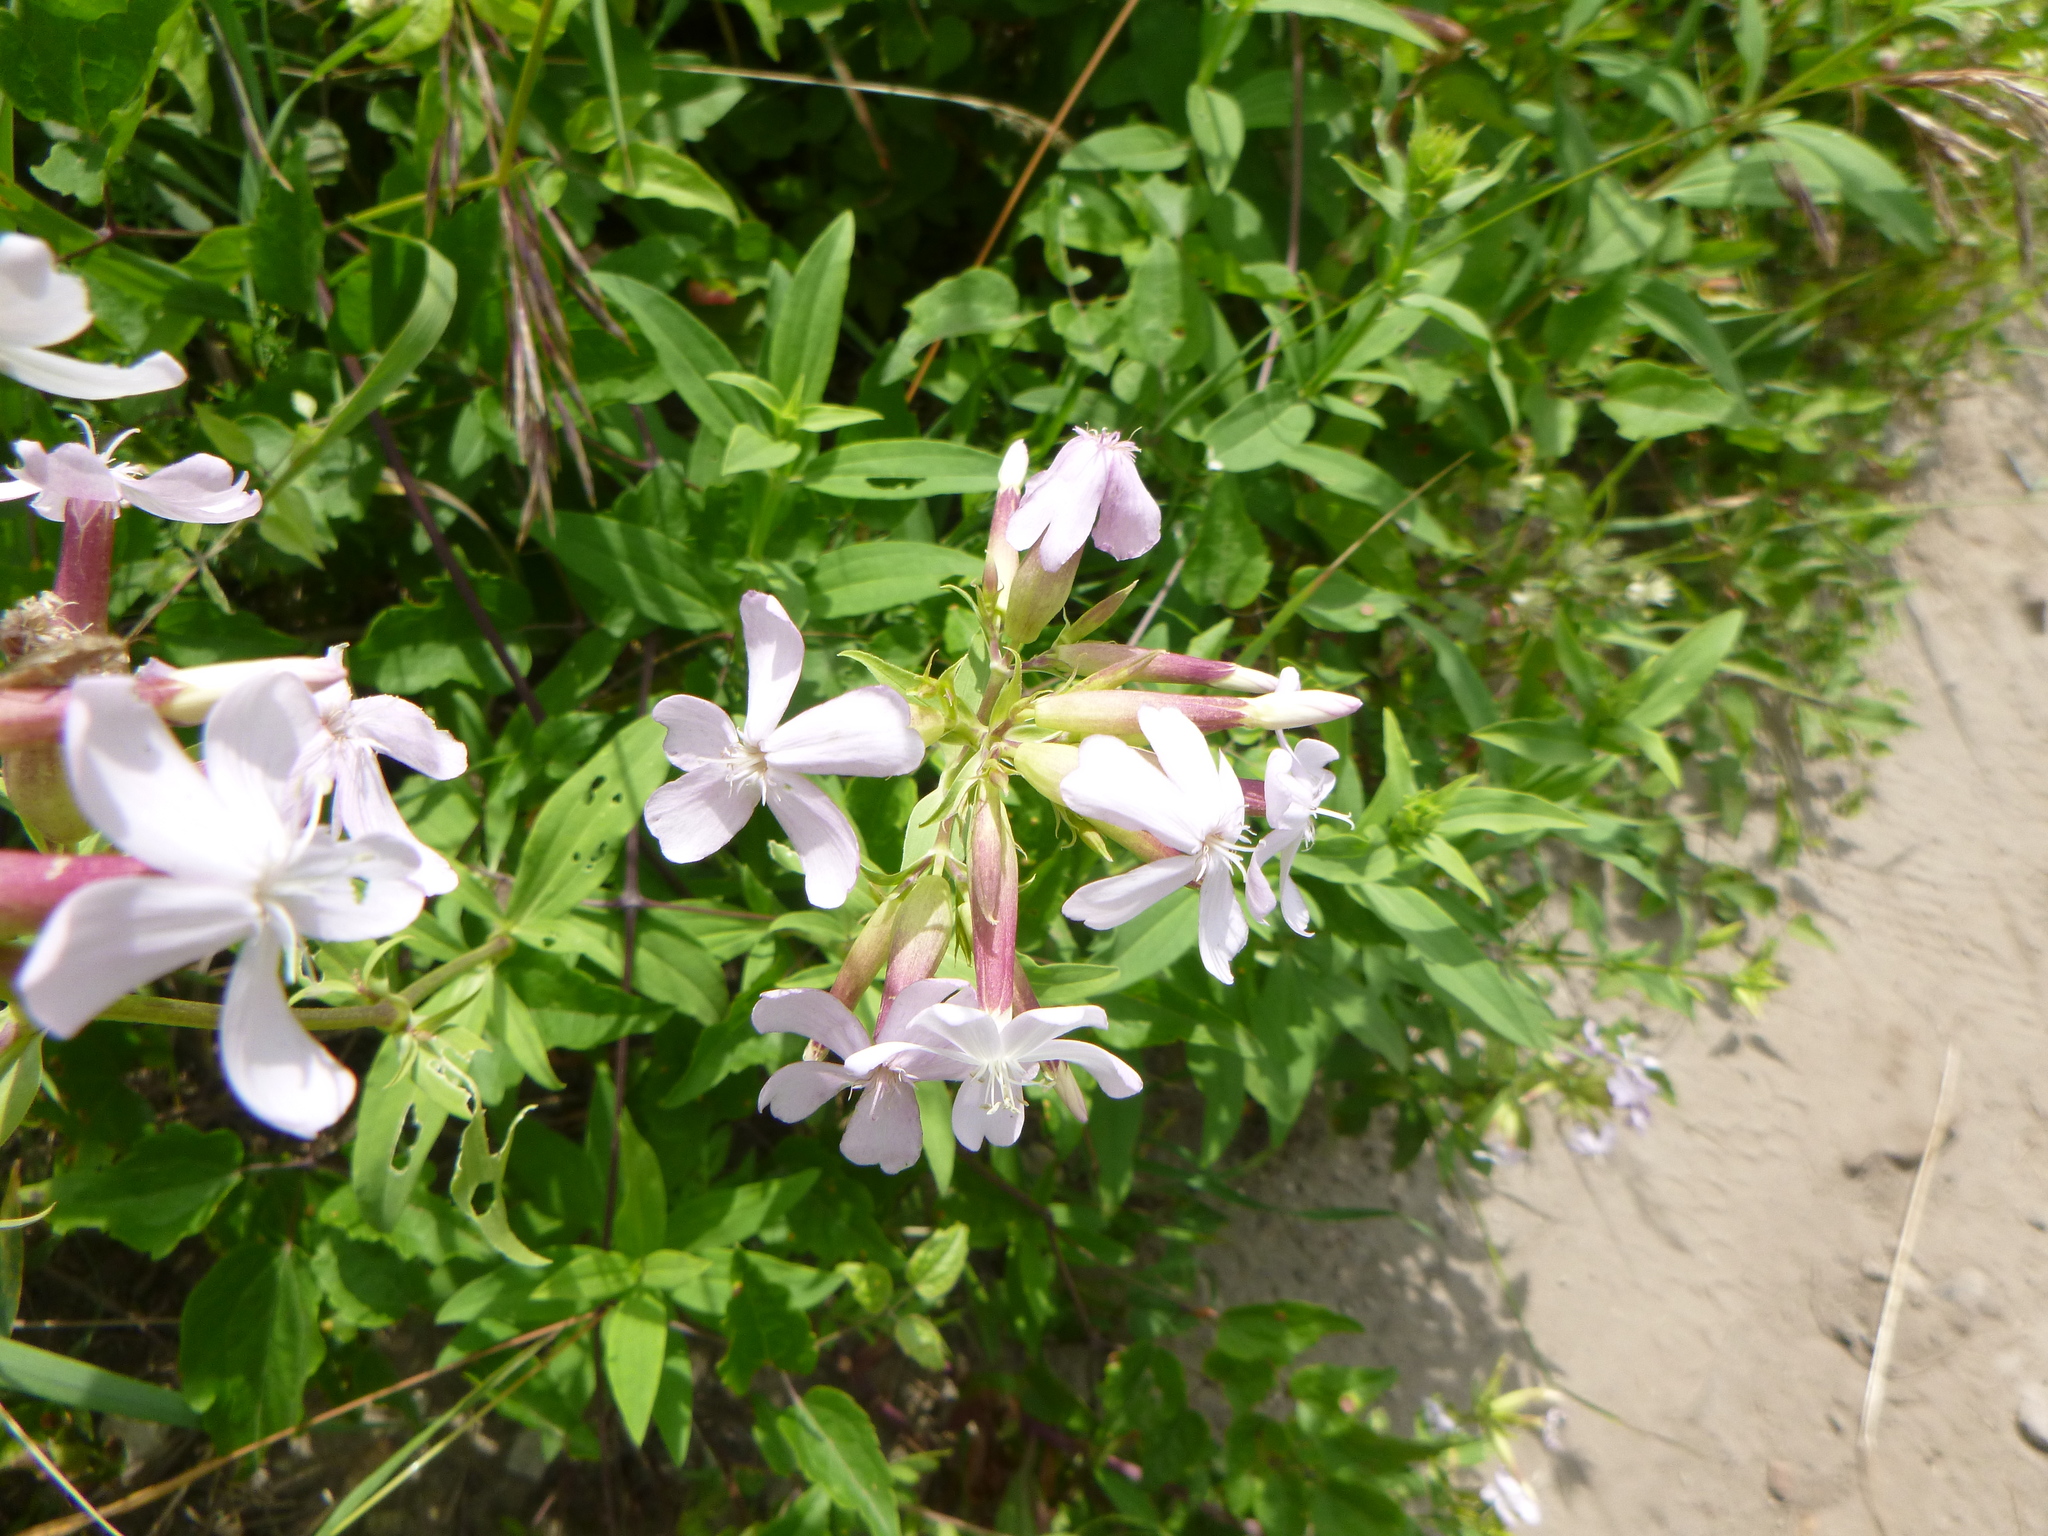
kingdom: Plantae
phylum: Tracheophyta
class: Magnoliopsida
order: Caryophyllales
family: Caryophyllaceae
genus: Saponaria
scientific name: Saponaria officinalis
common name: Soapwort
